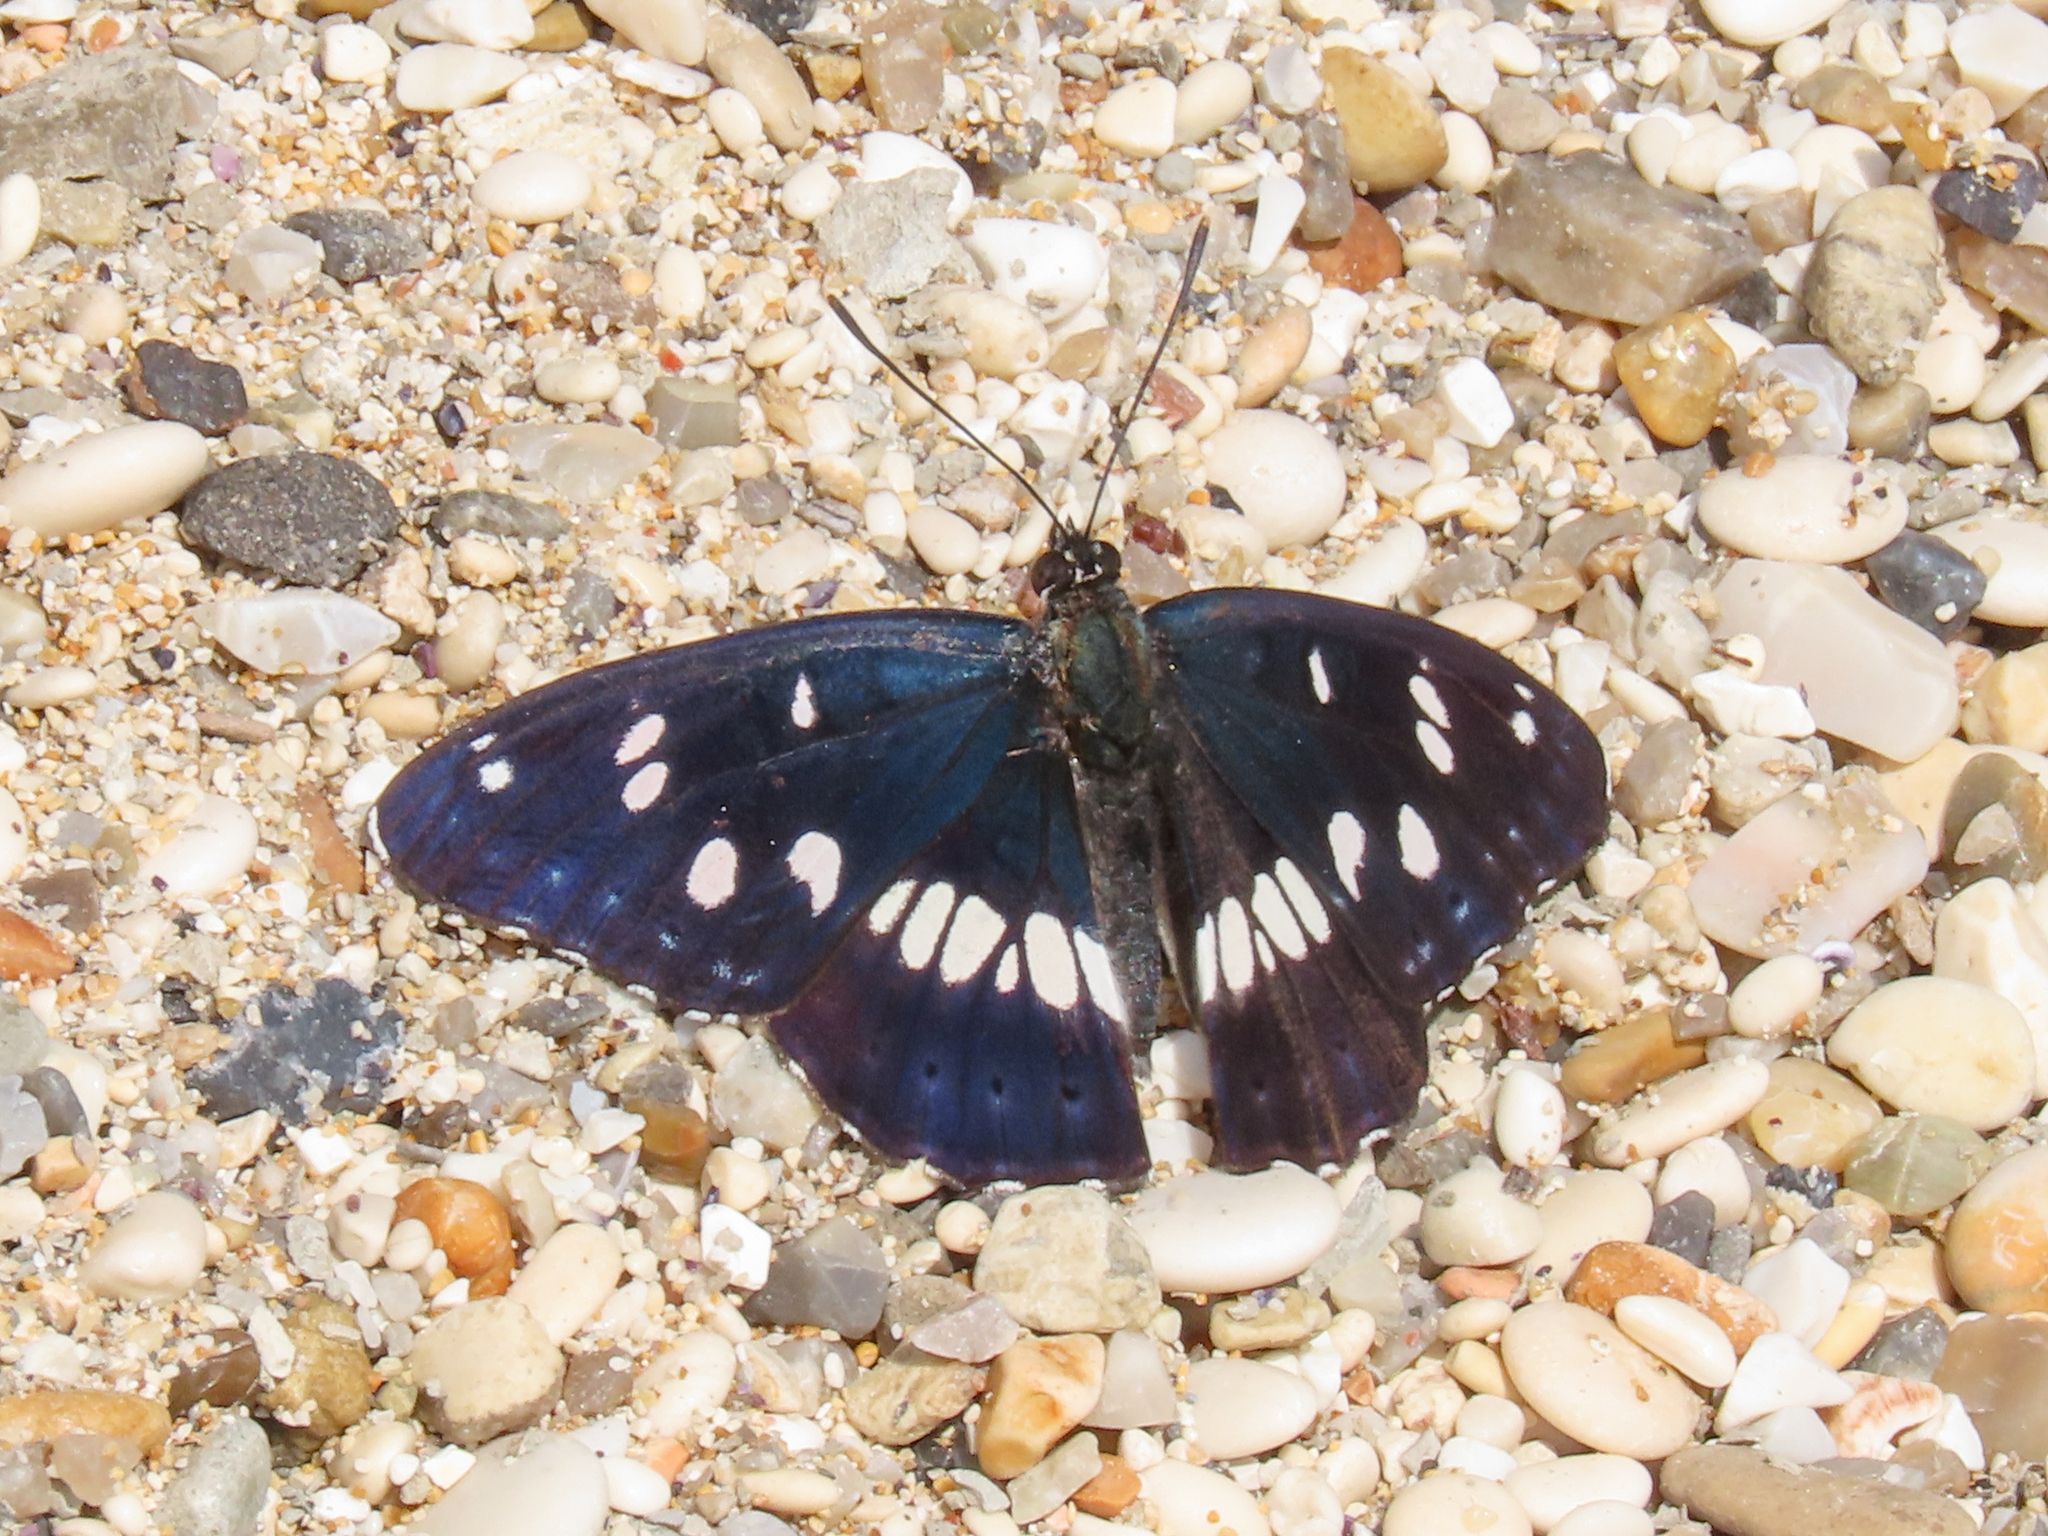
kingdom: Animalia
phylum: Arthropoda
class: Insecta
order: Lepidoptera
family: Nymphalidae
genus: Limenitis
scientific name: Limenitis reducta
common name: Southern white admiral
